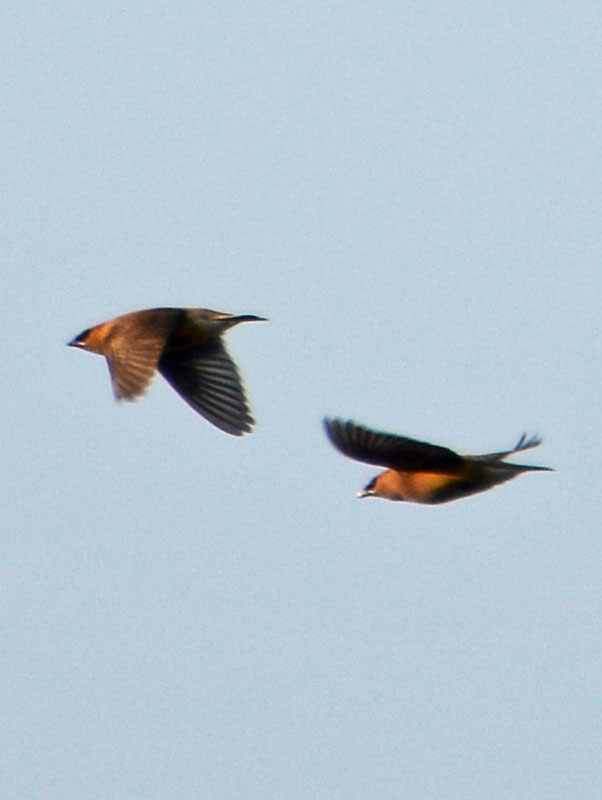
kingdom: Animalia
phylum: Chordata
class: Aves
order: Passeriformes
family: Bombycillidae
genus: Bombycilla
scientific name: Bombycilla cedrorum
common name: Cedar waxwing
